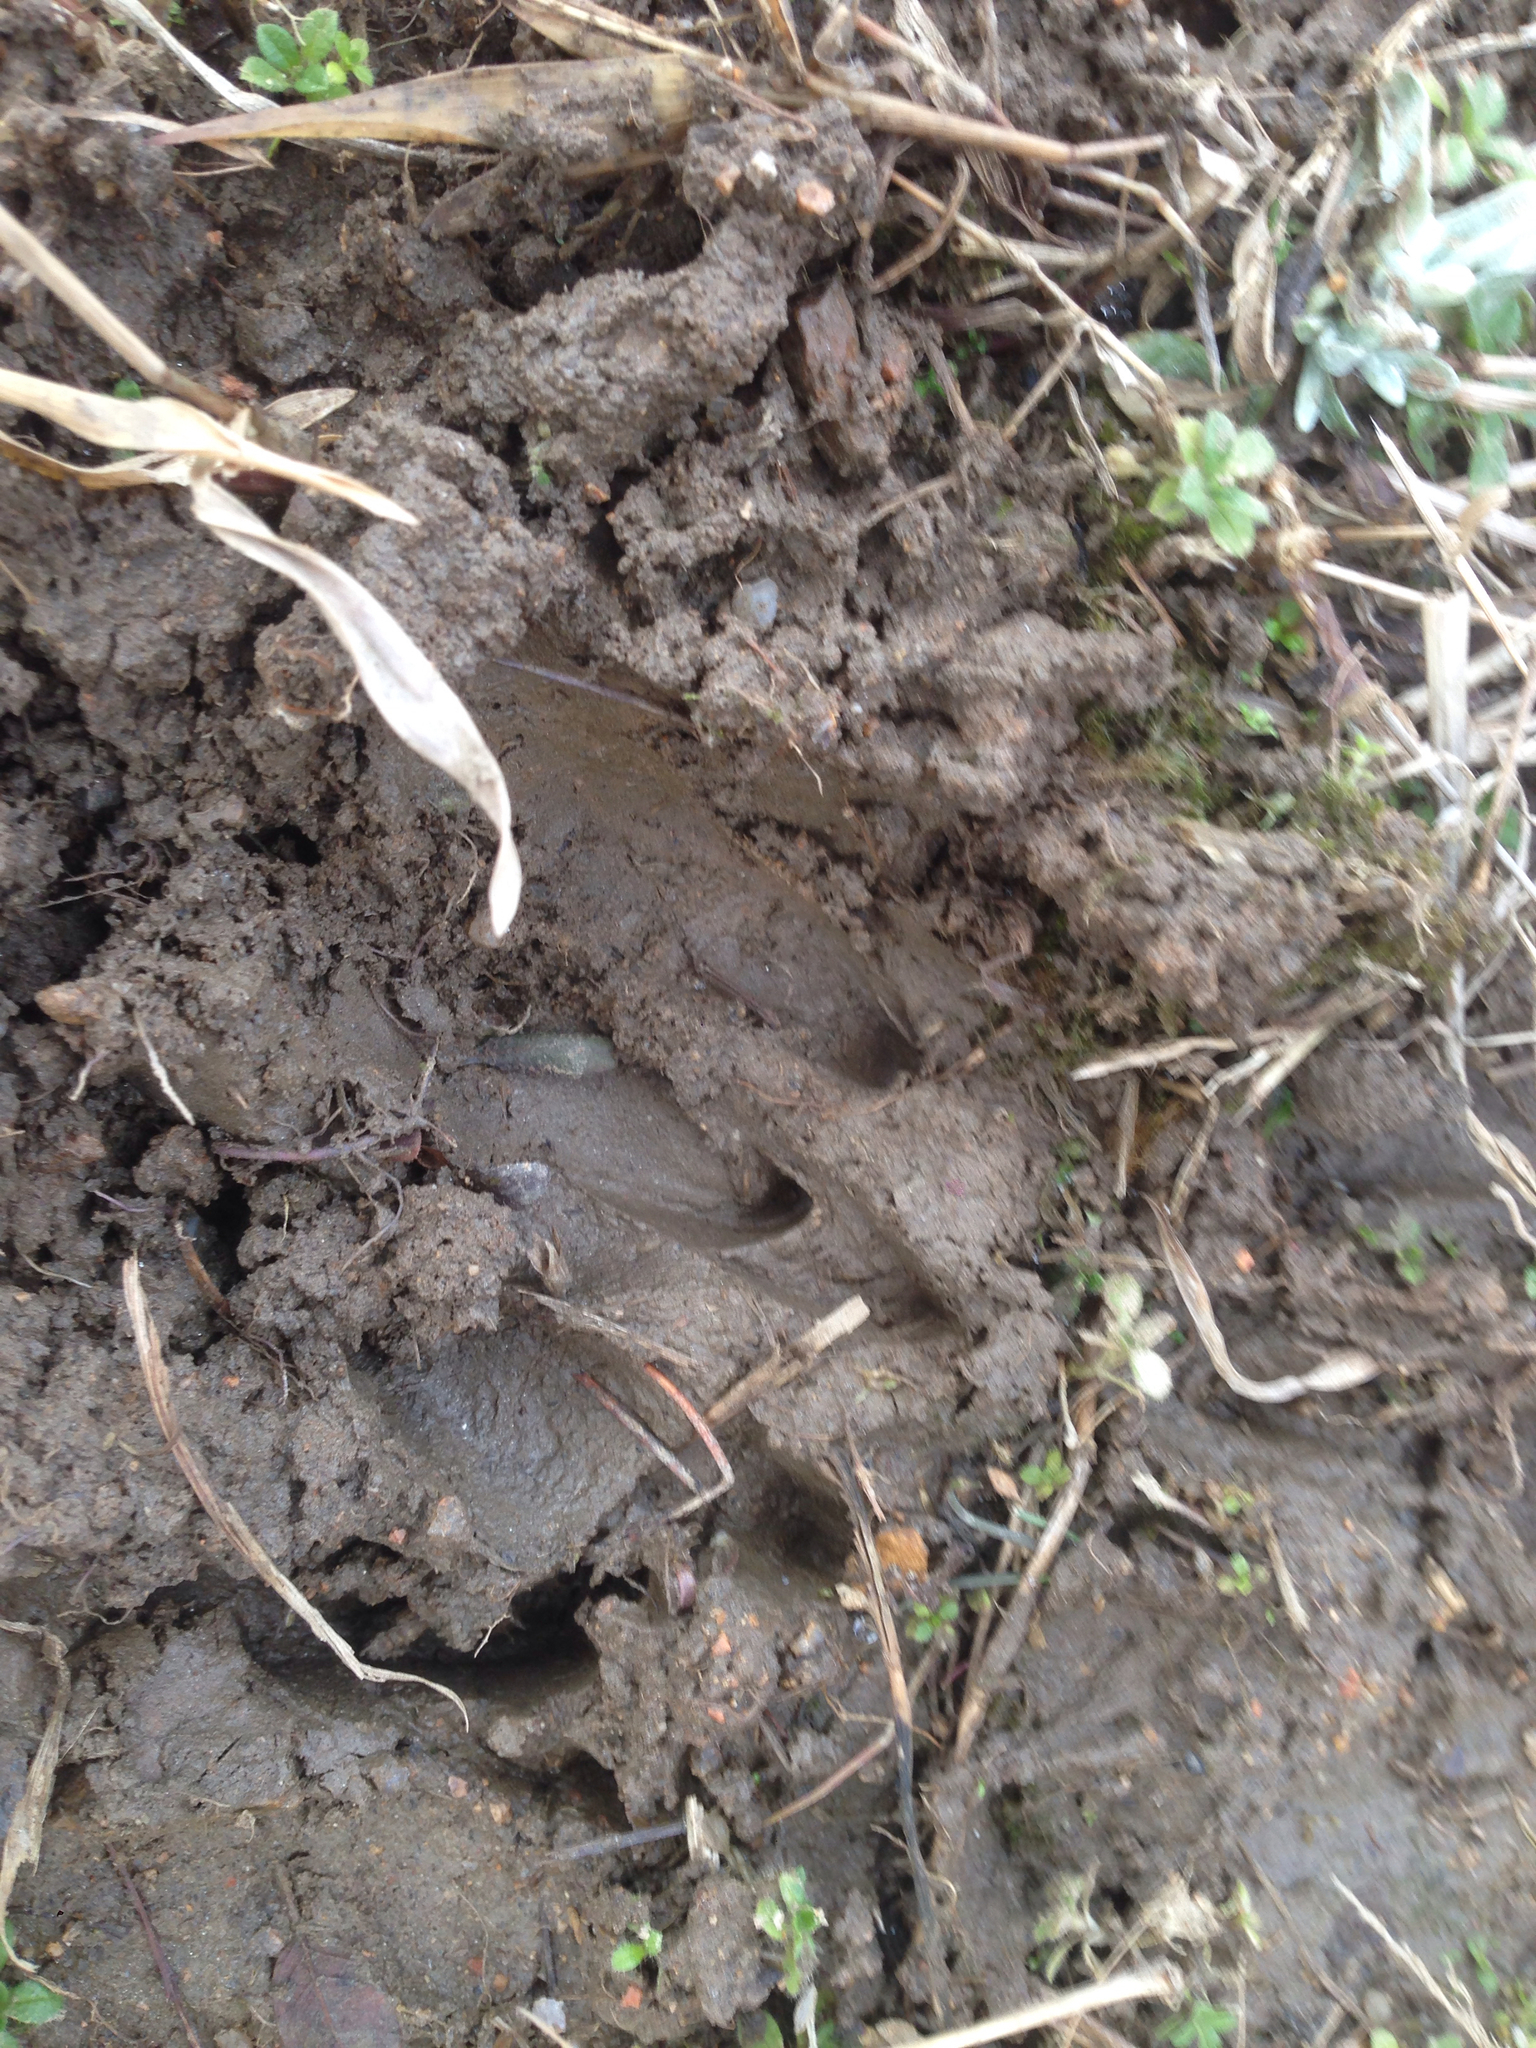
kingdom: Animalia
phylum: Chordata
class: Mammalia
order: Artiodactyla
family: Cervidae
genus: Hydropotes
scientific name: Hydropotes inermis
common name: Chinese water deer
